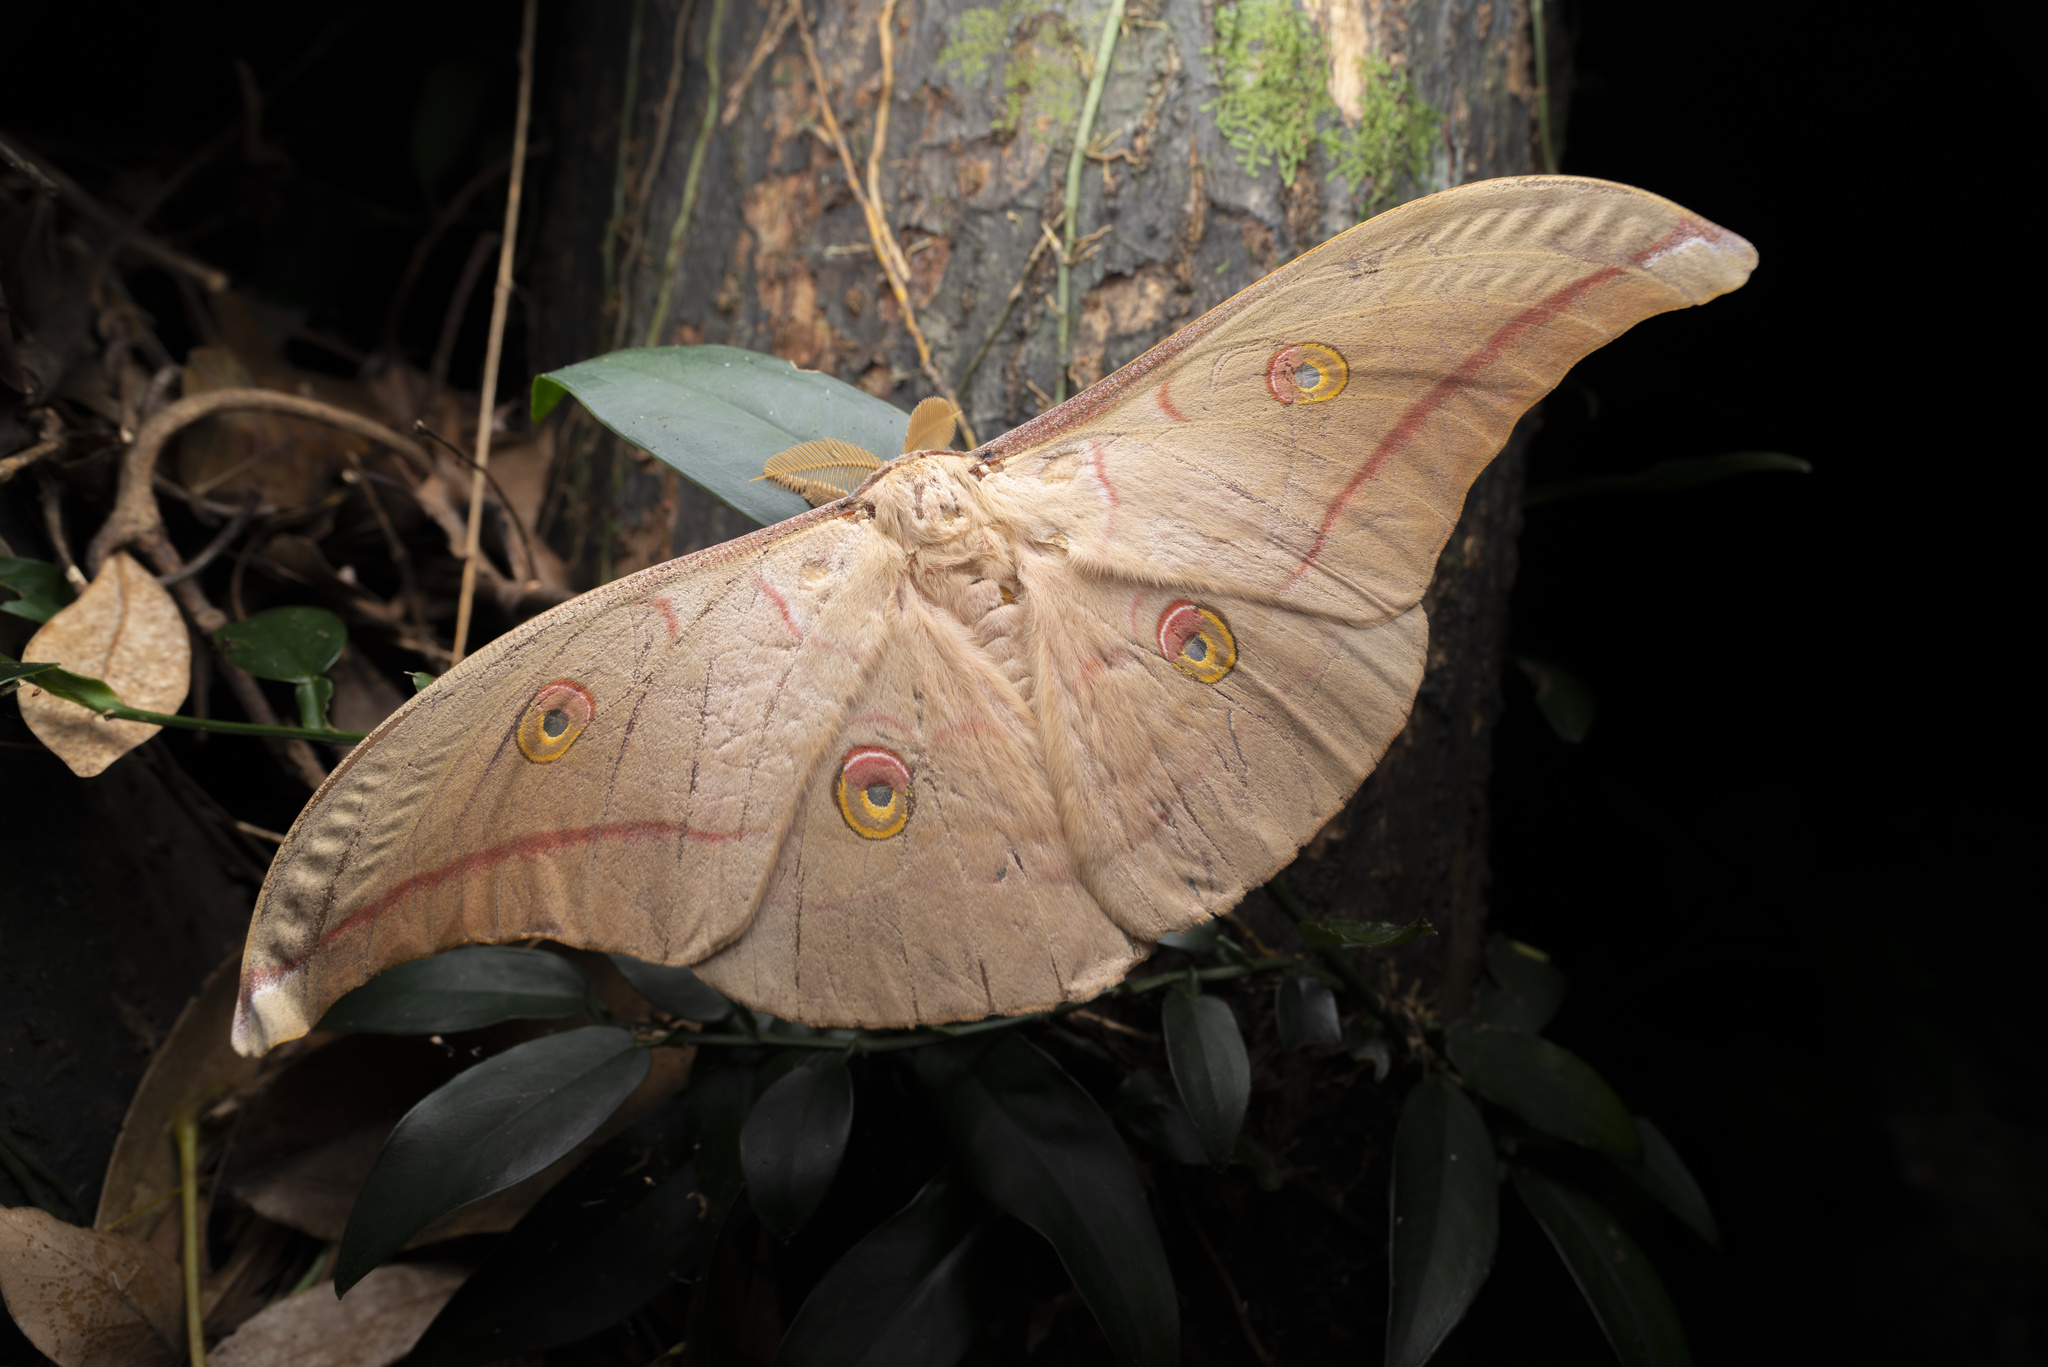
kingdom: Animalia
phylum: Arthropoda
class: Insecta
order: Lepidoptera
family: Saturniidae
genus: Antheraea
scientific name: Antheraea pernyi
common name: Chinese oak silk moth
